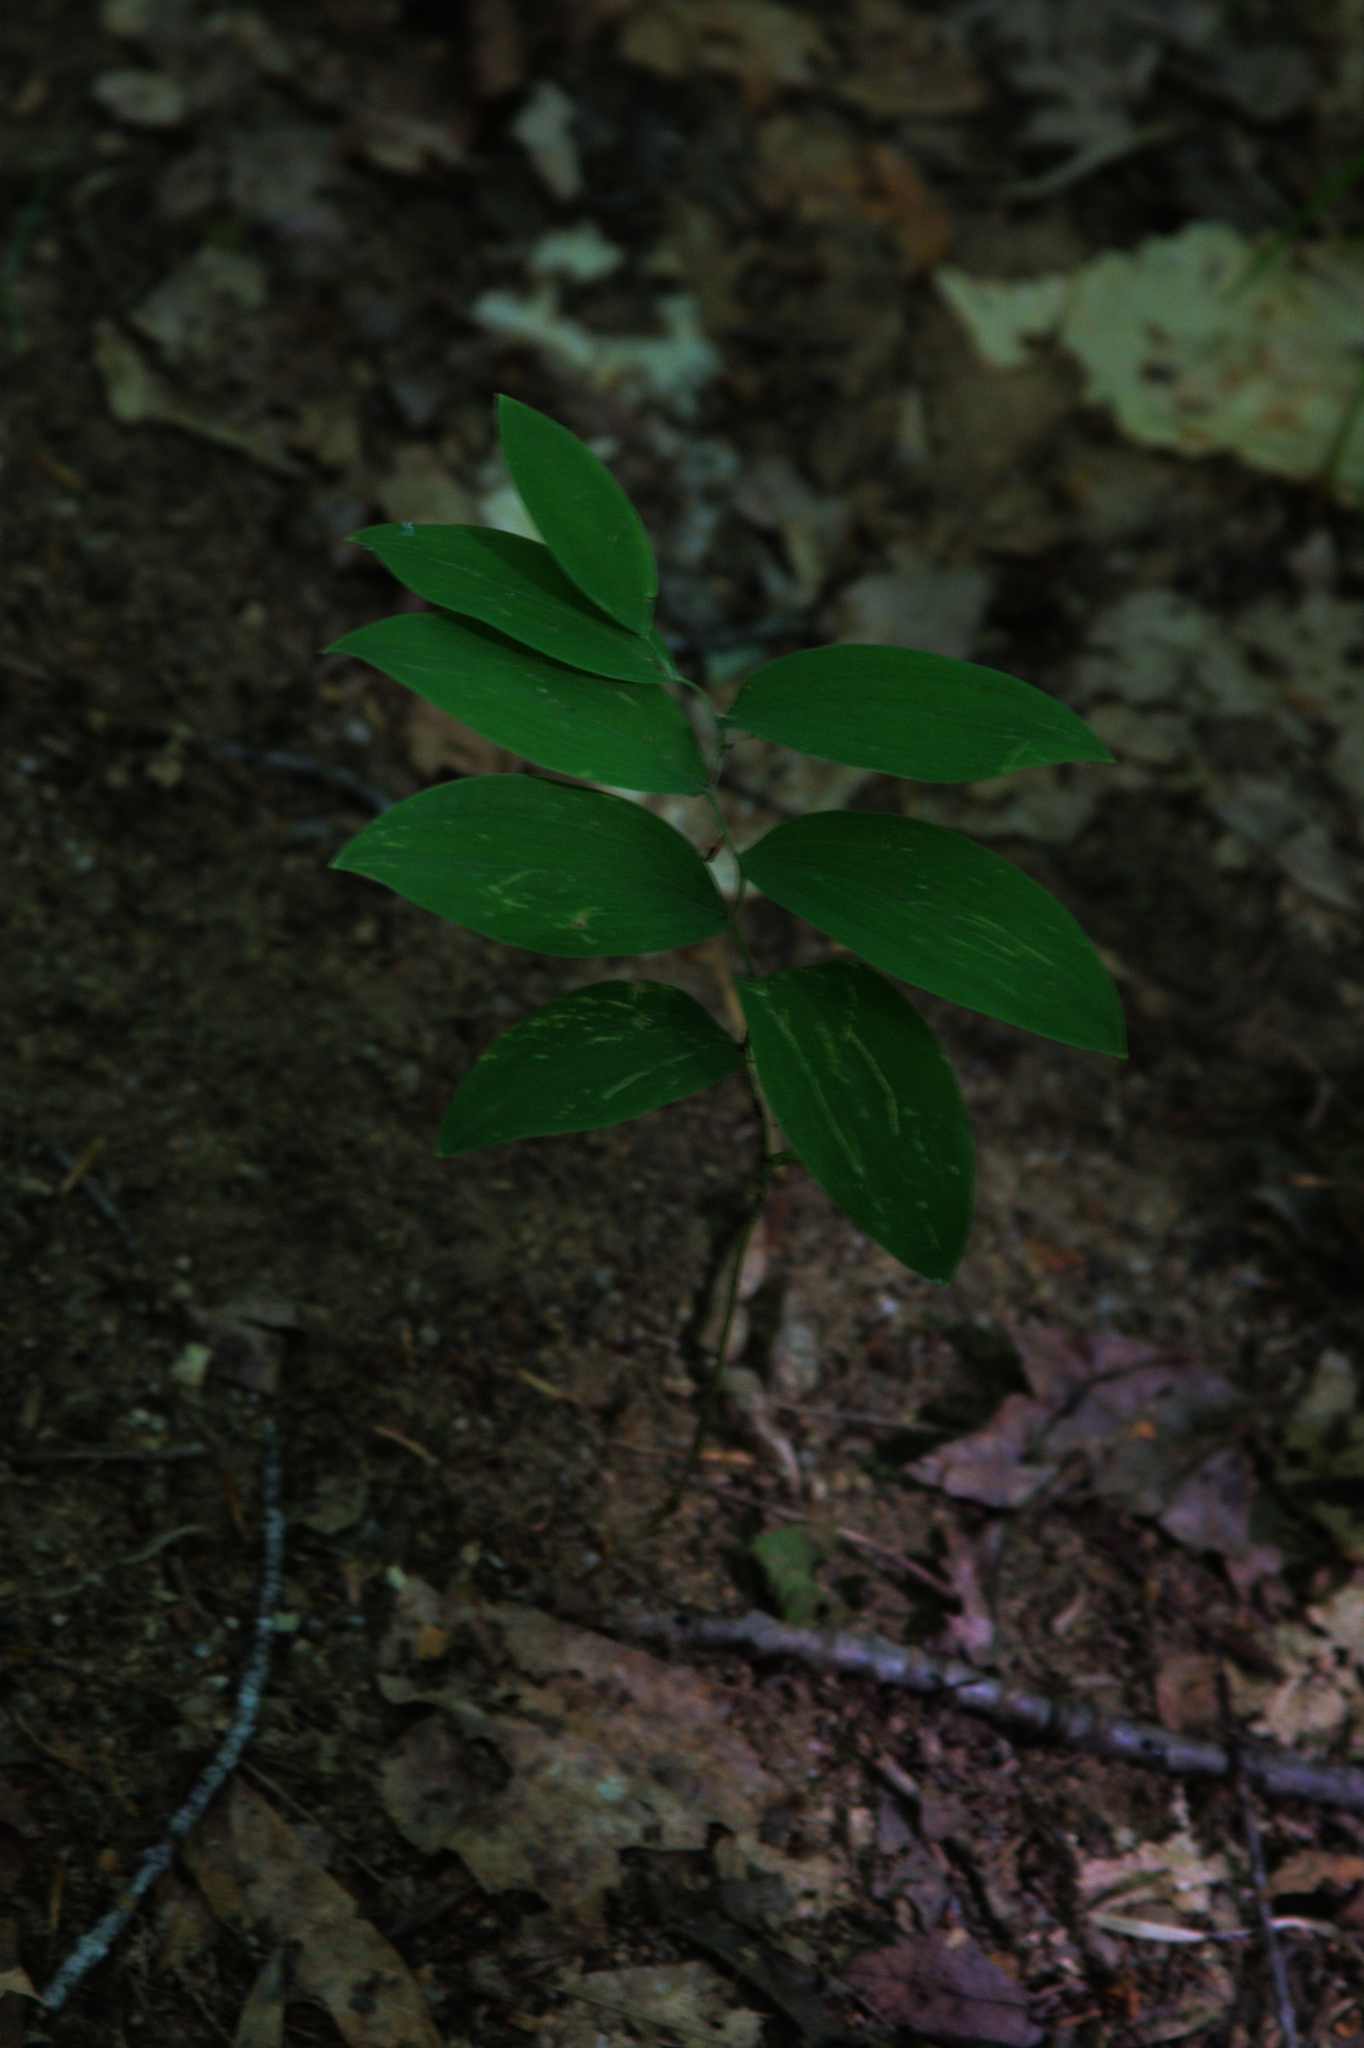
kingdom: Plantae
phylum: Tracheophyta
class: Liliopsida
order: Liliales
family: Colchicaceae
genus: Uvularia
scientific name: Uvularia sessilifolia
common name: Straw-lily
